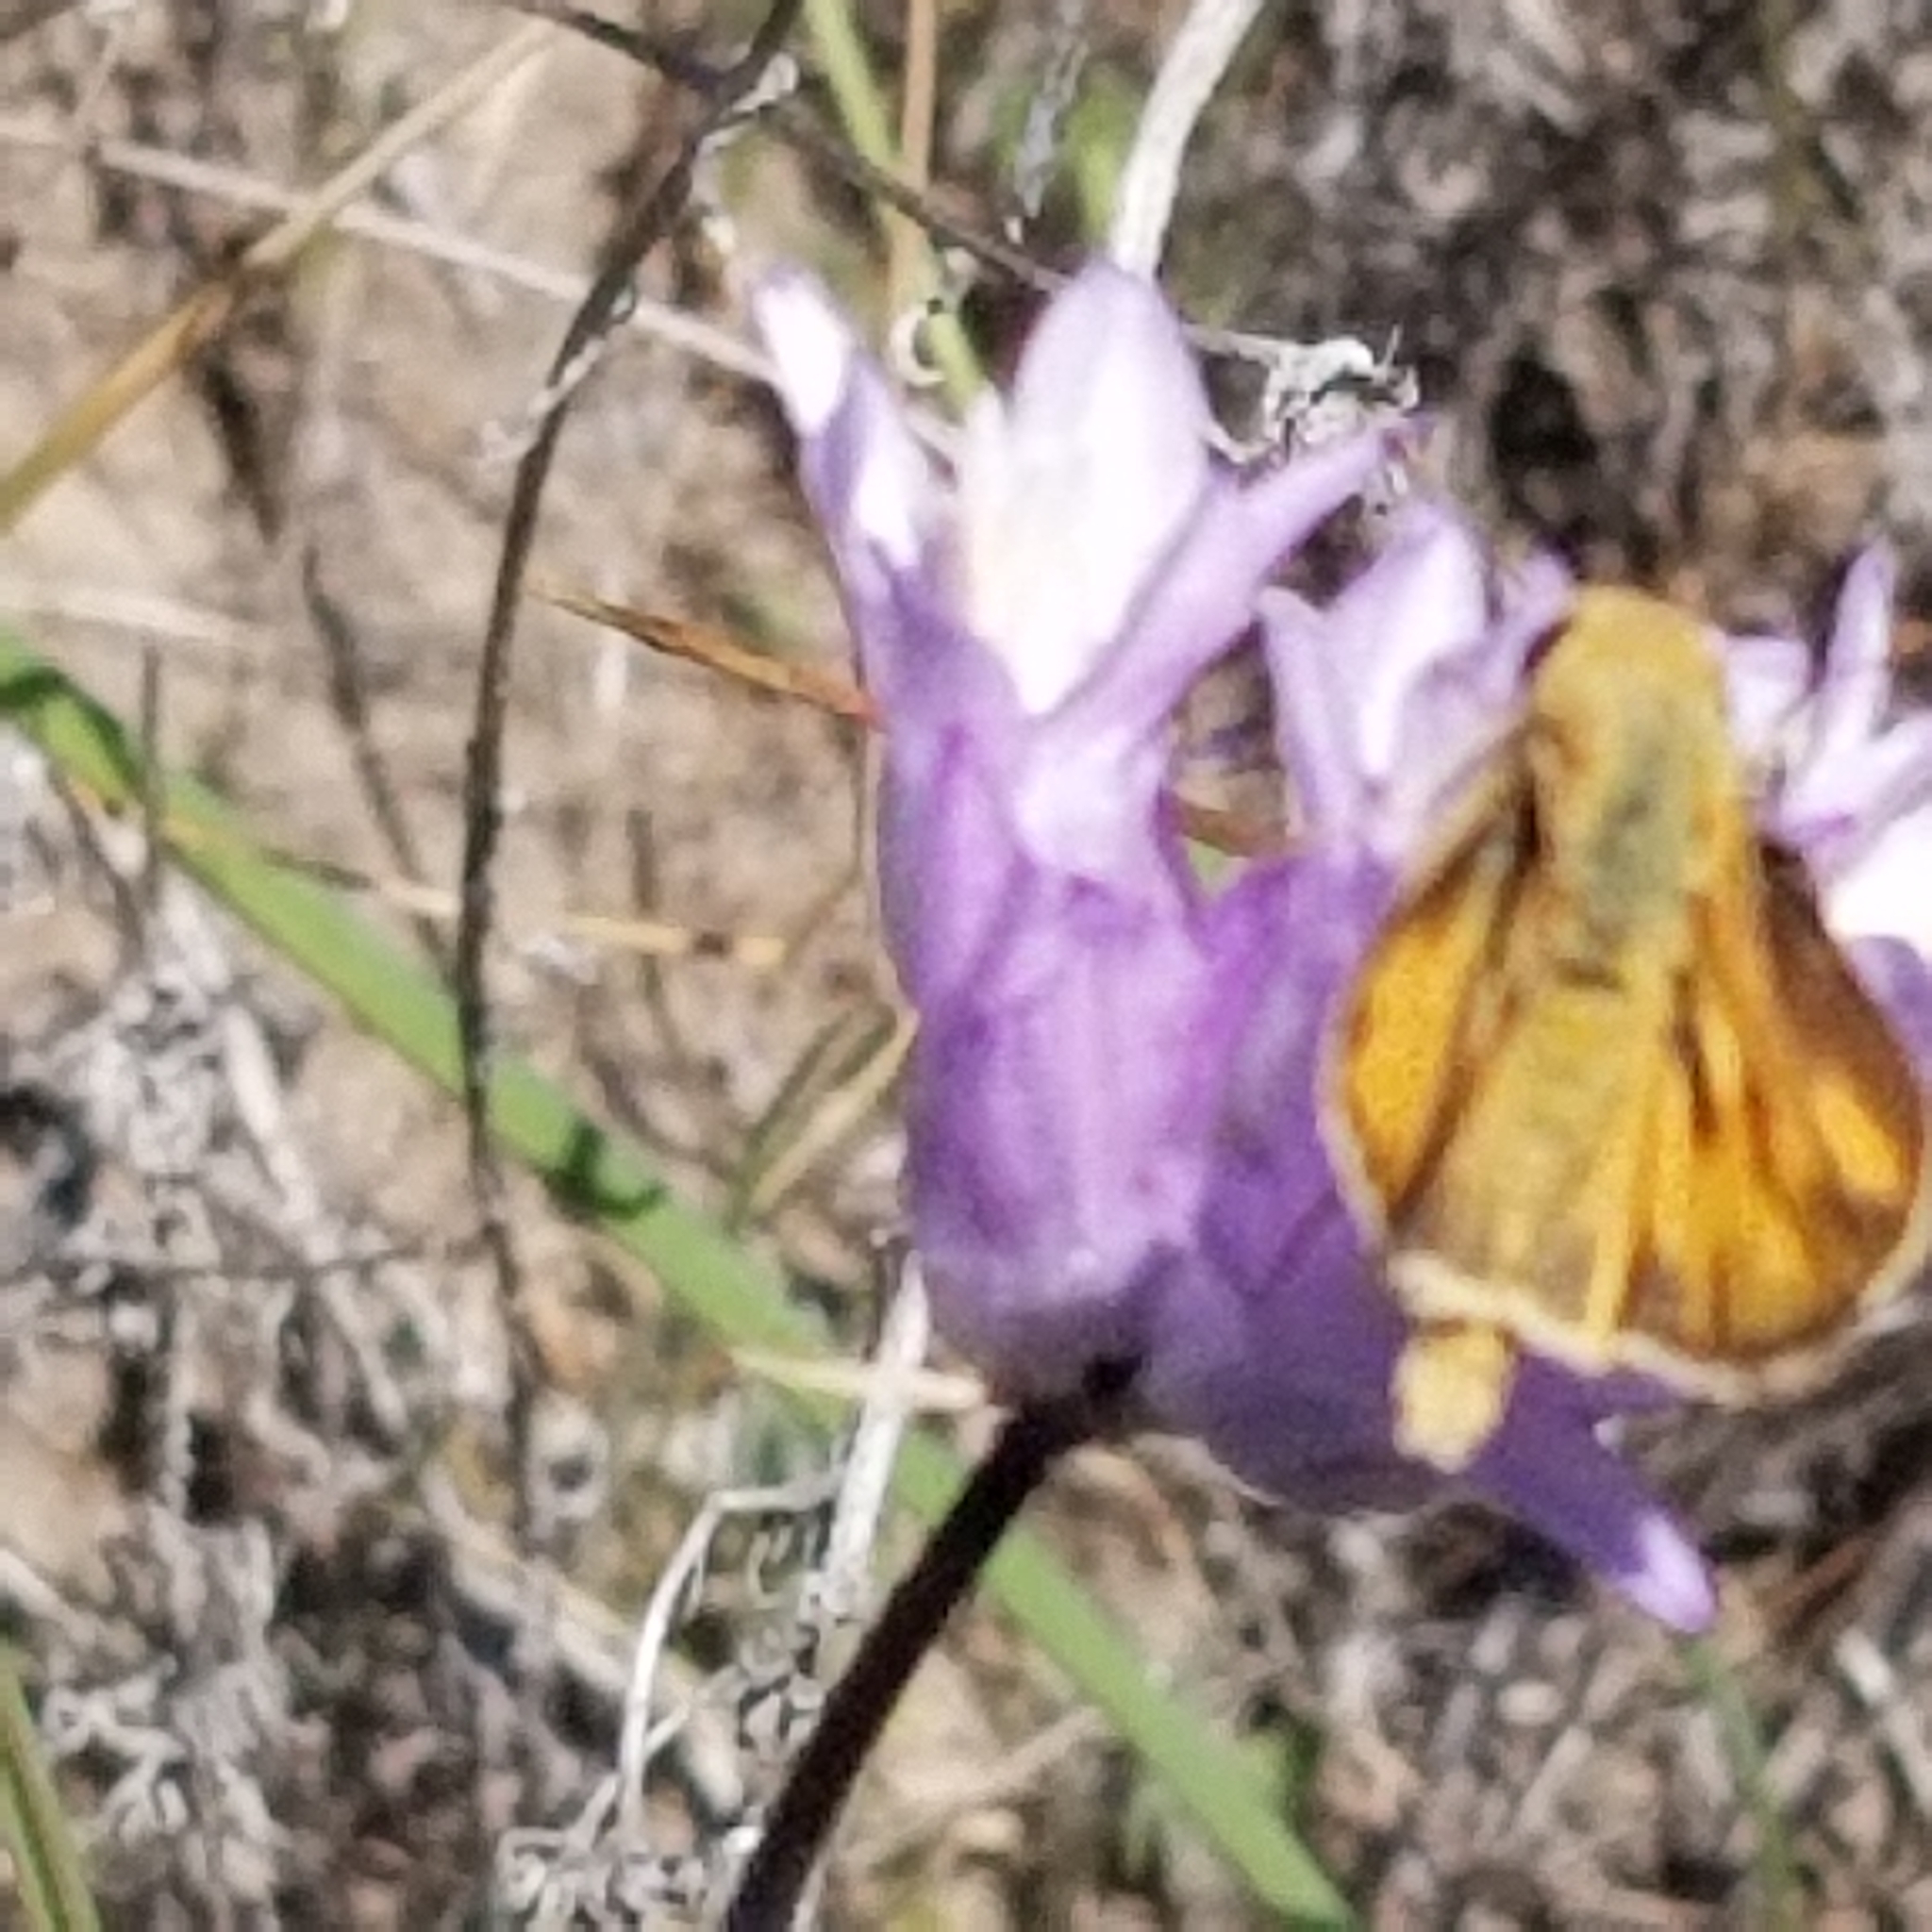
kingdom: Animalia
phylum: Arthropoda
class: Insecta
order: Lepidoptera
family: Hesperiidae
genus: Hylephila
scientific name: Hylephila phyleus
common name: Fiery skipper
